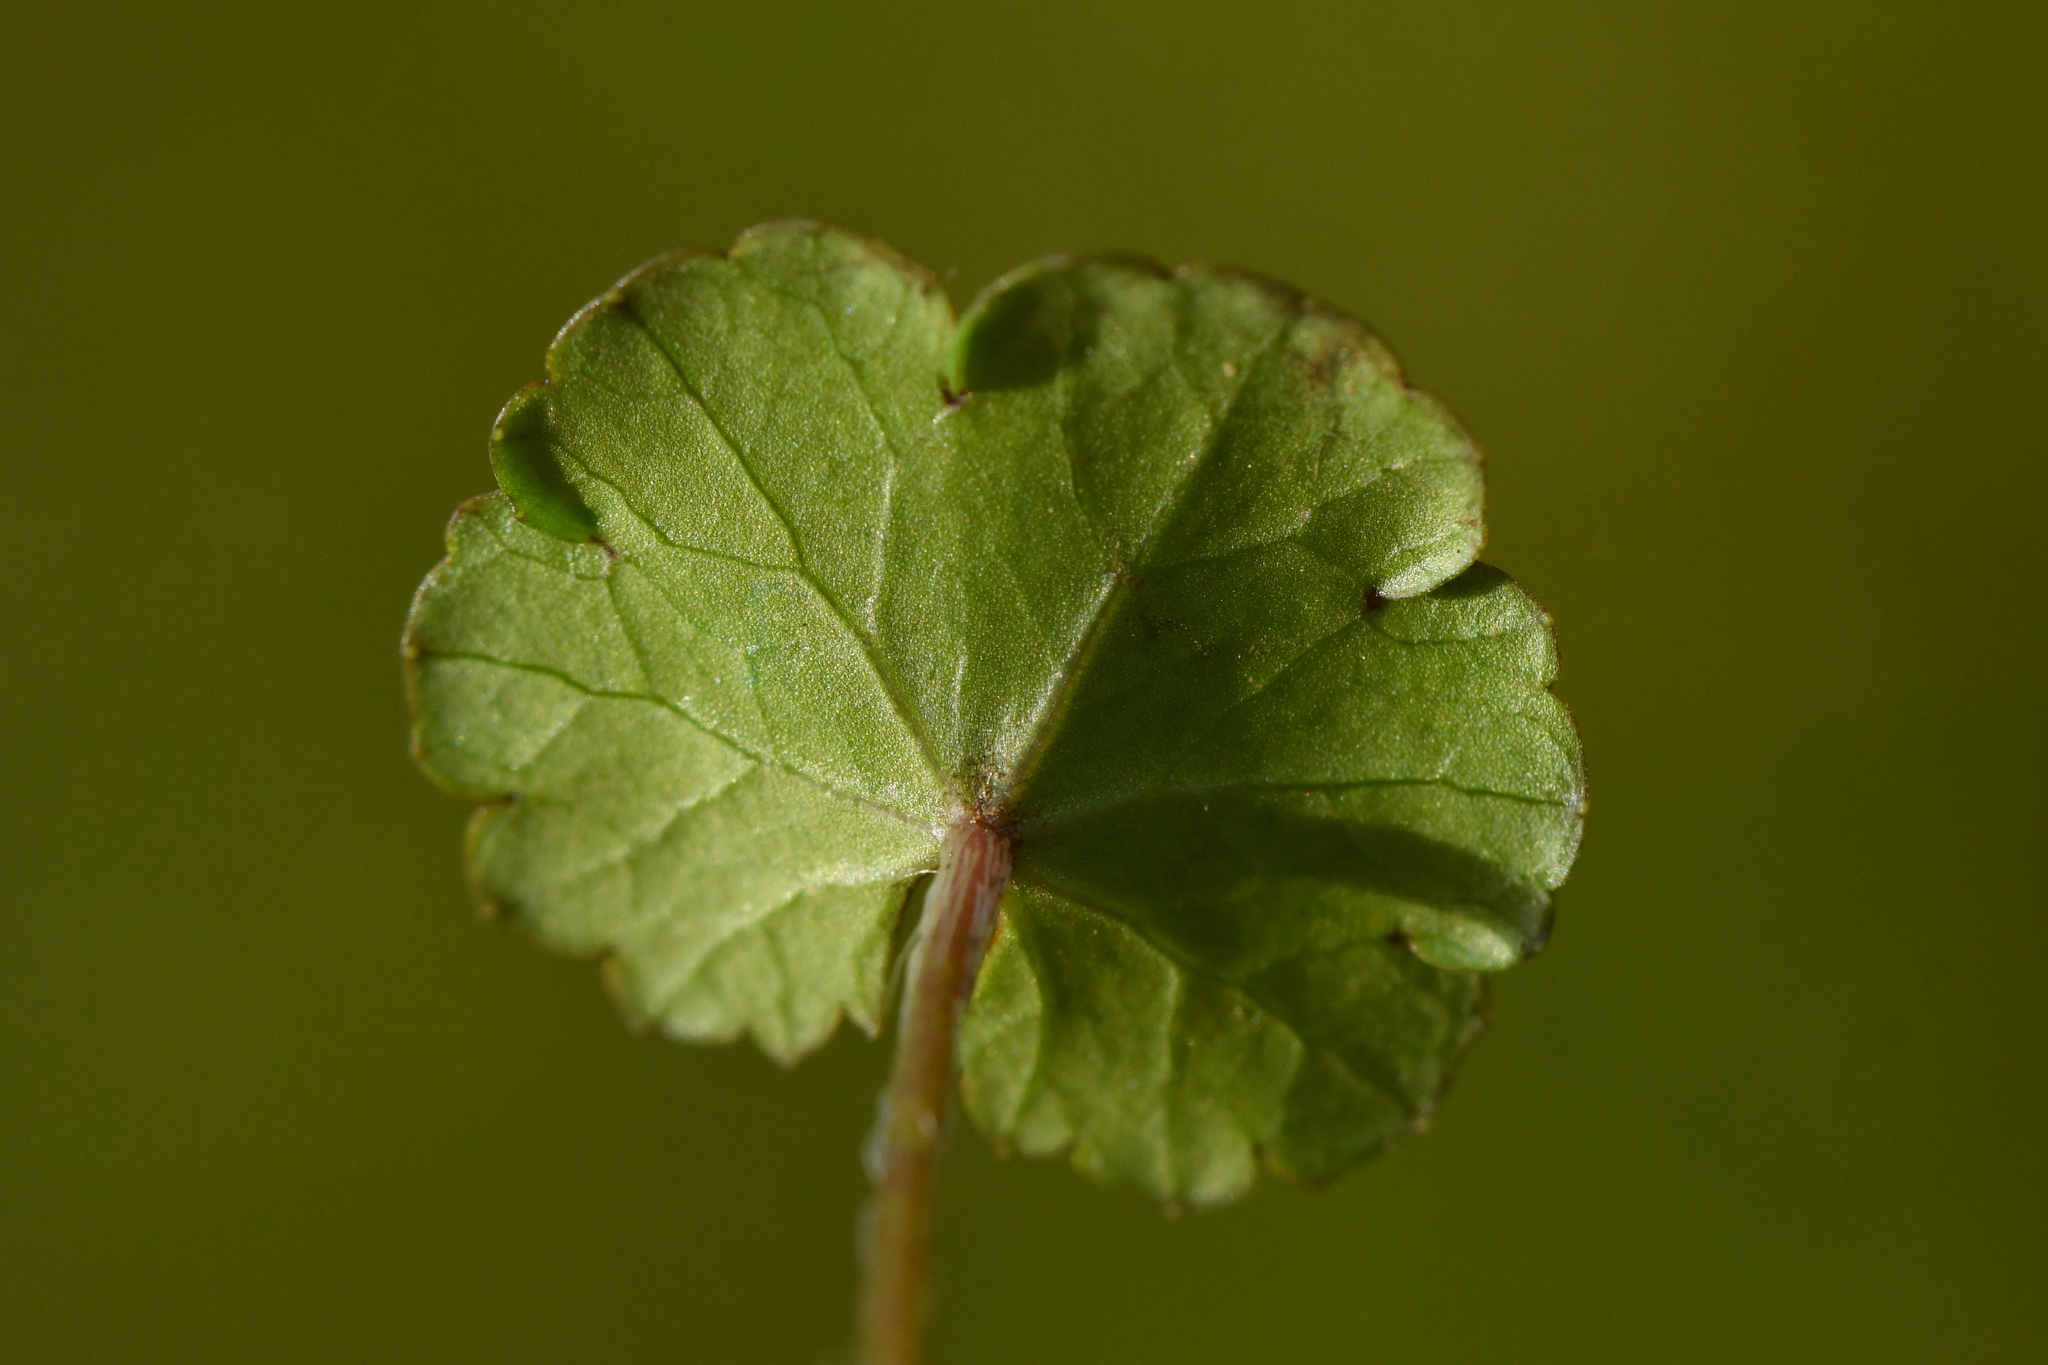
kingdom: Plantae
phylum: Tracheophyta
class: Magnoliopsida
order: Apiales
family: Araliaceae
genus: Hydrocotyle
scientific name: Hydrocotyle microphylla
